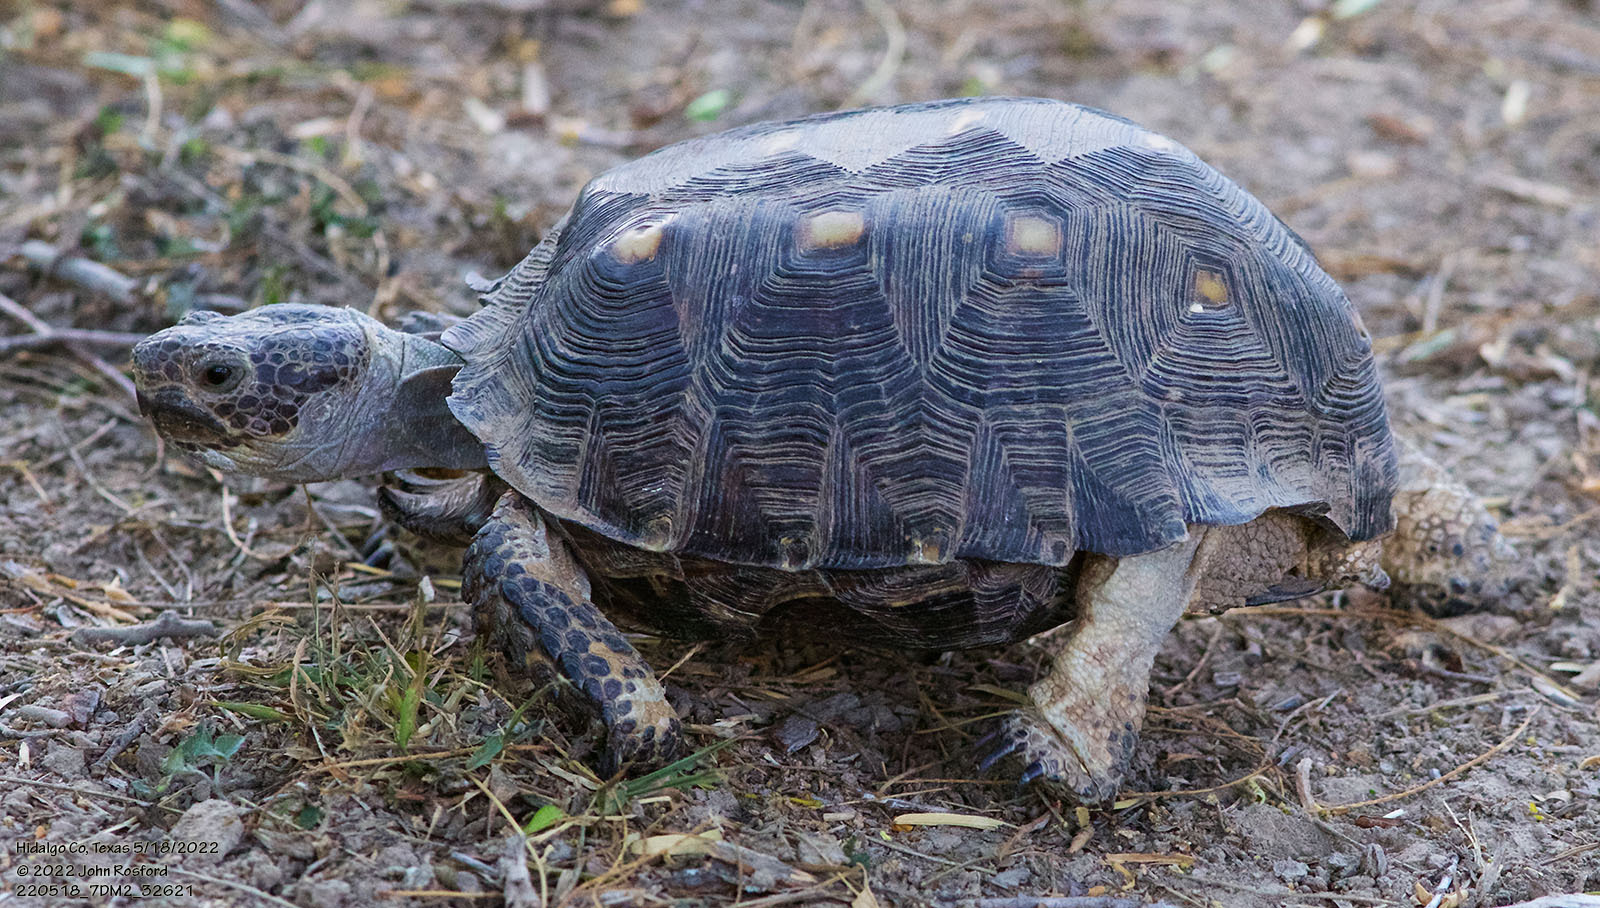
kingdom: Animalia
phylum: Chordata
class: Testudines
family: Testudinidae
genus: Gopherus
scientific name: Gopherus berlandieri
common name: Texas (gopher )tortoise
